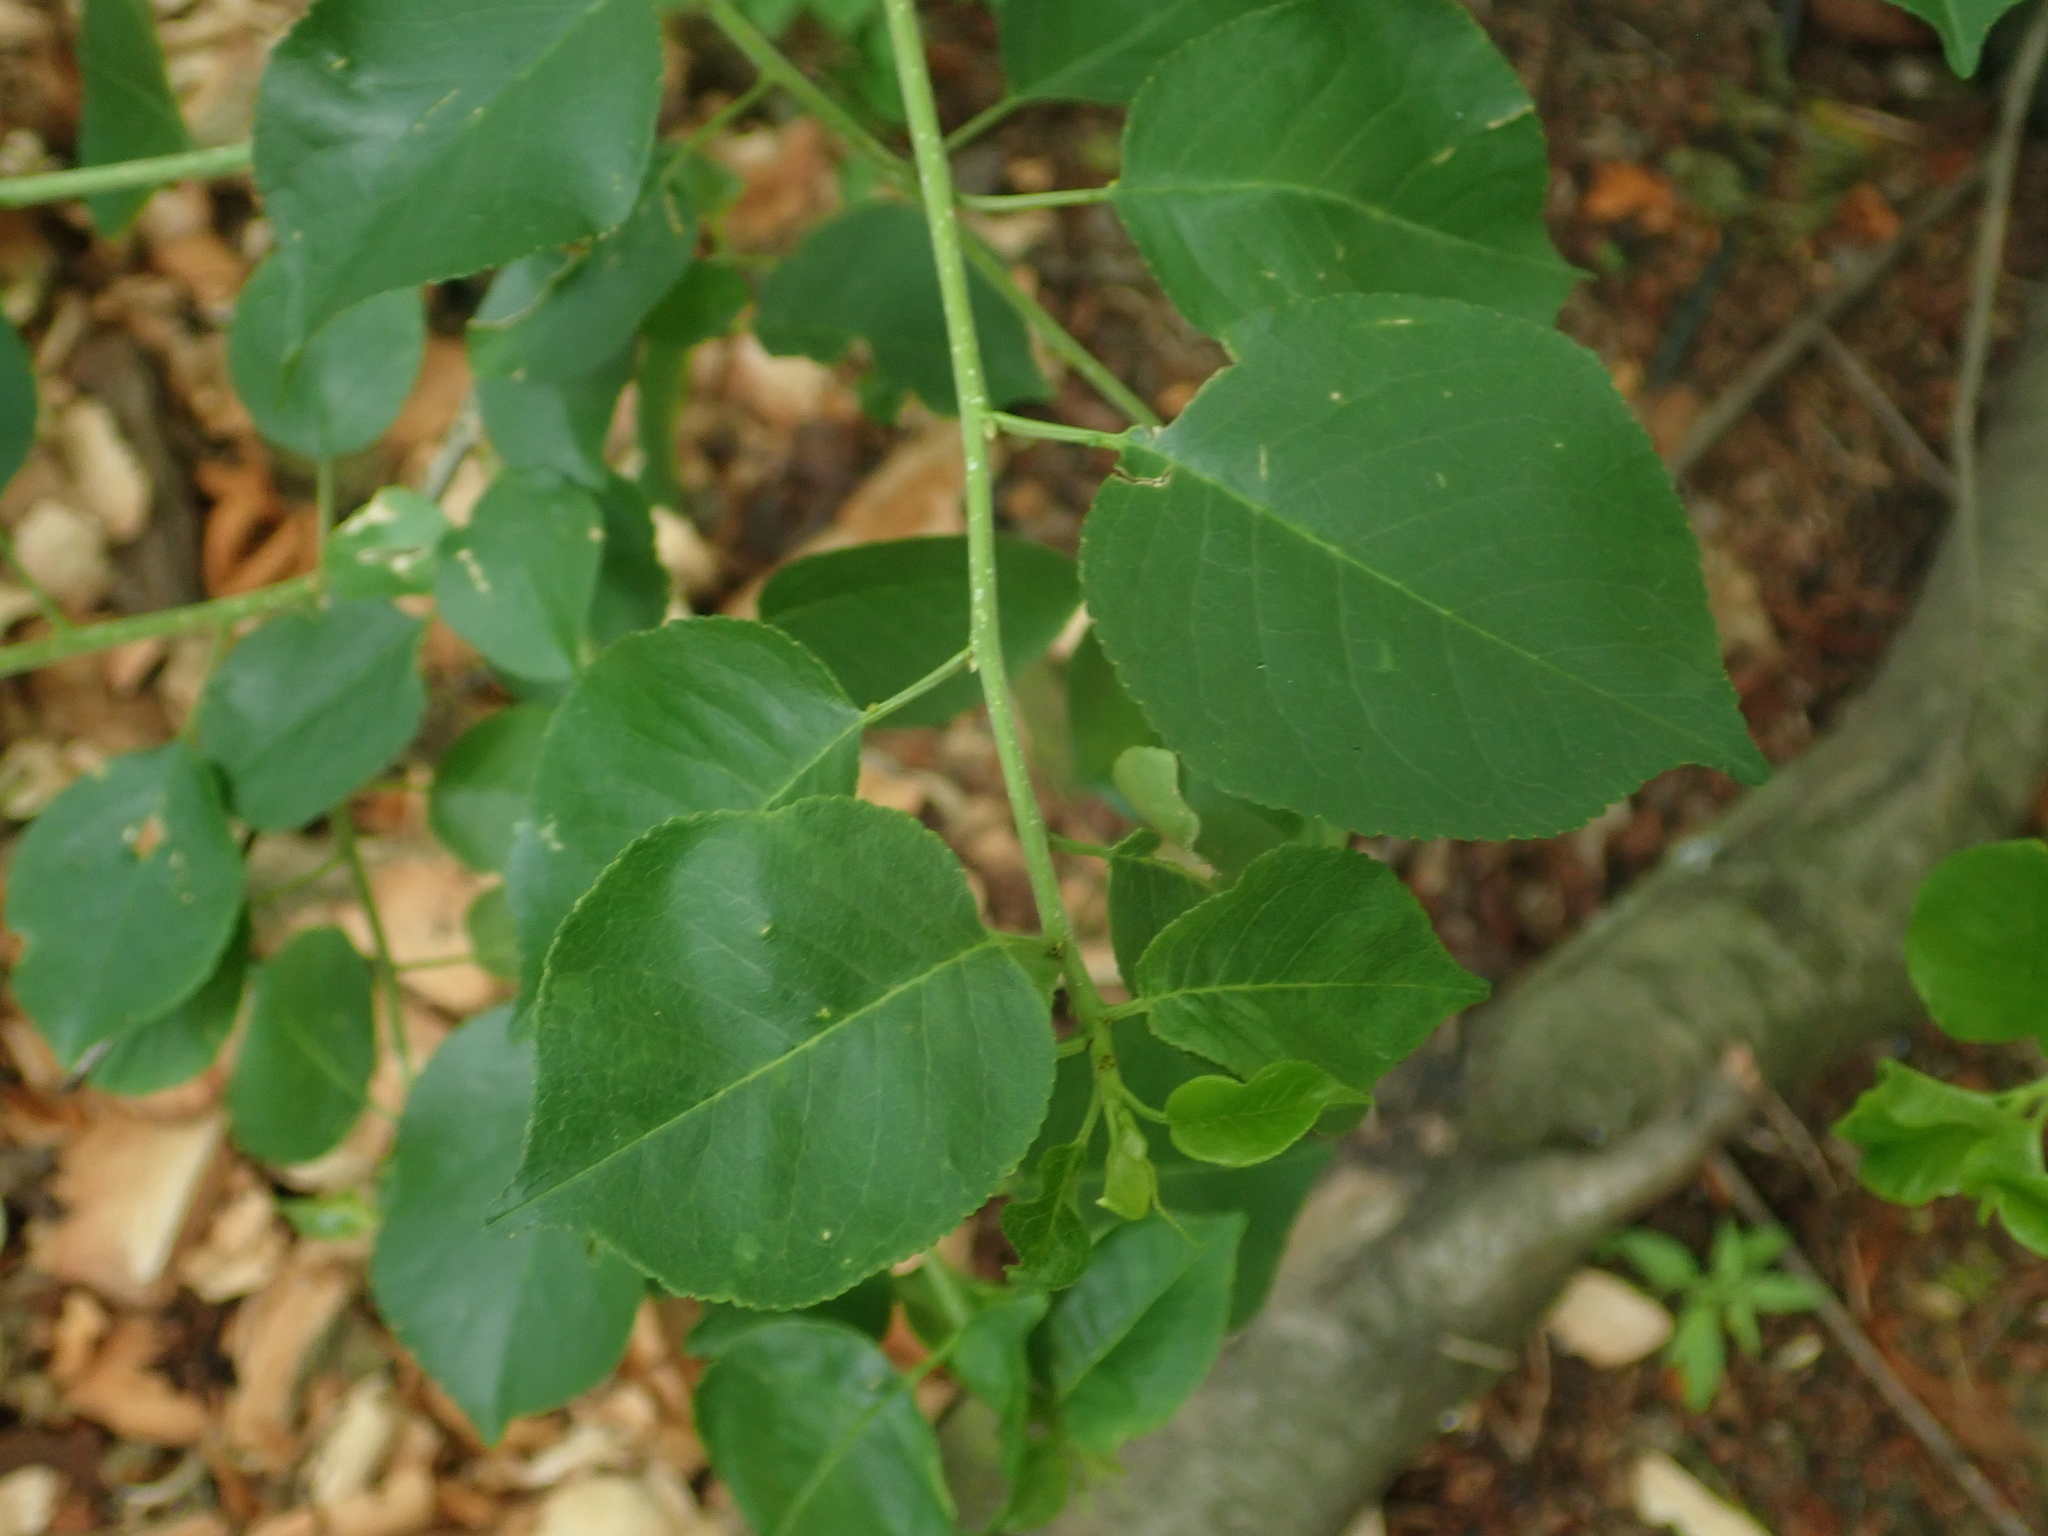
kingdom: Plantae
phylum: Tracheophyta
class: Magnoliopsida
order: Rosales
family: Rosaceae
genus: Prunus
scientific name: Prunus mahaleb
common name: Mahaleb cherry
